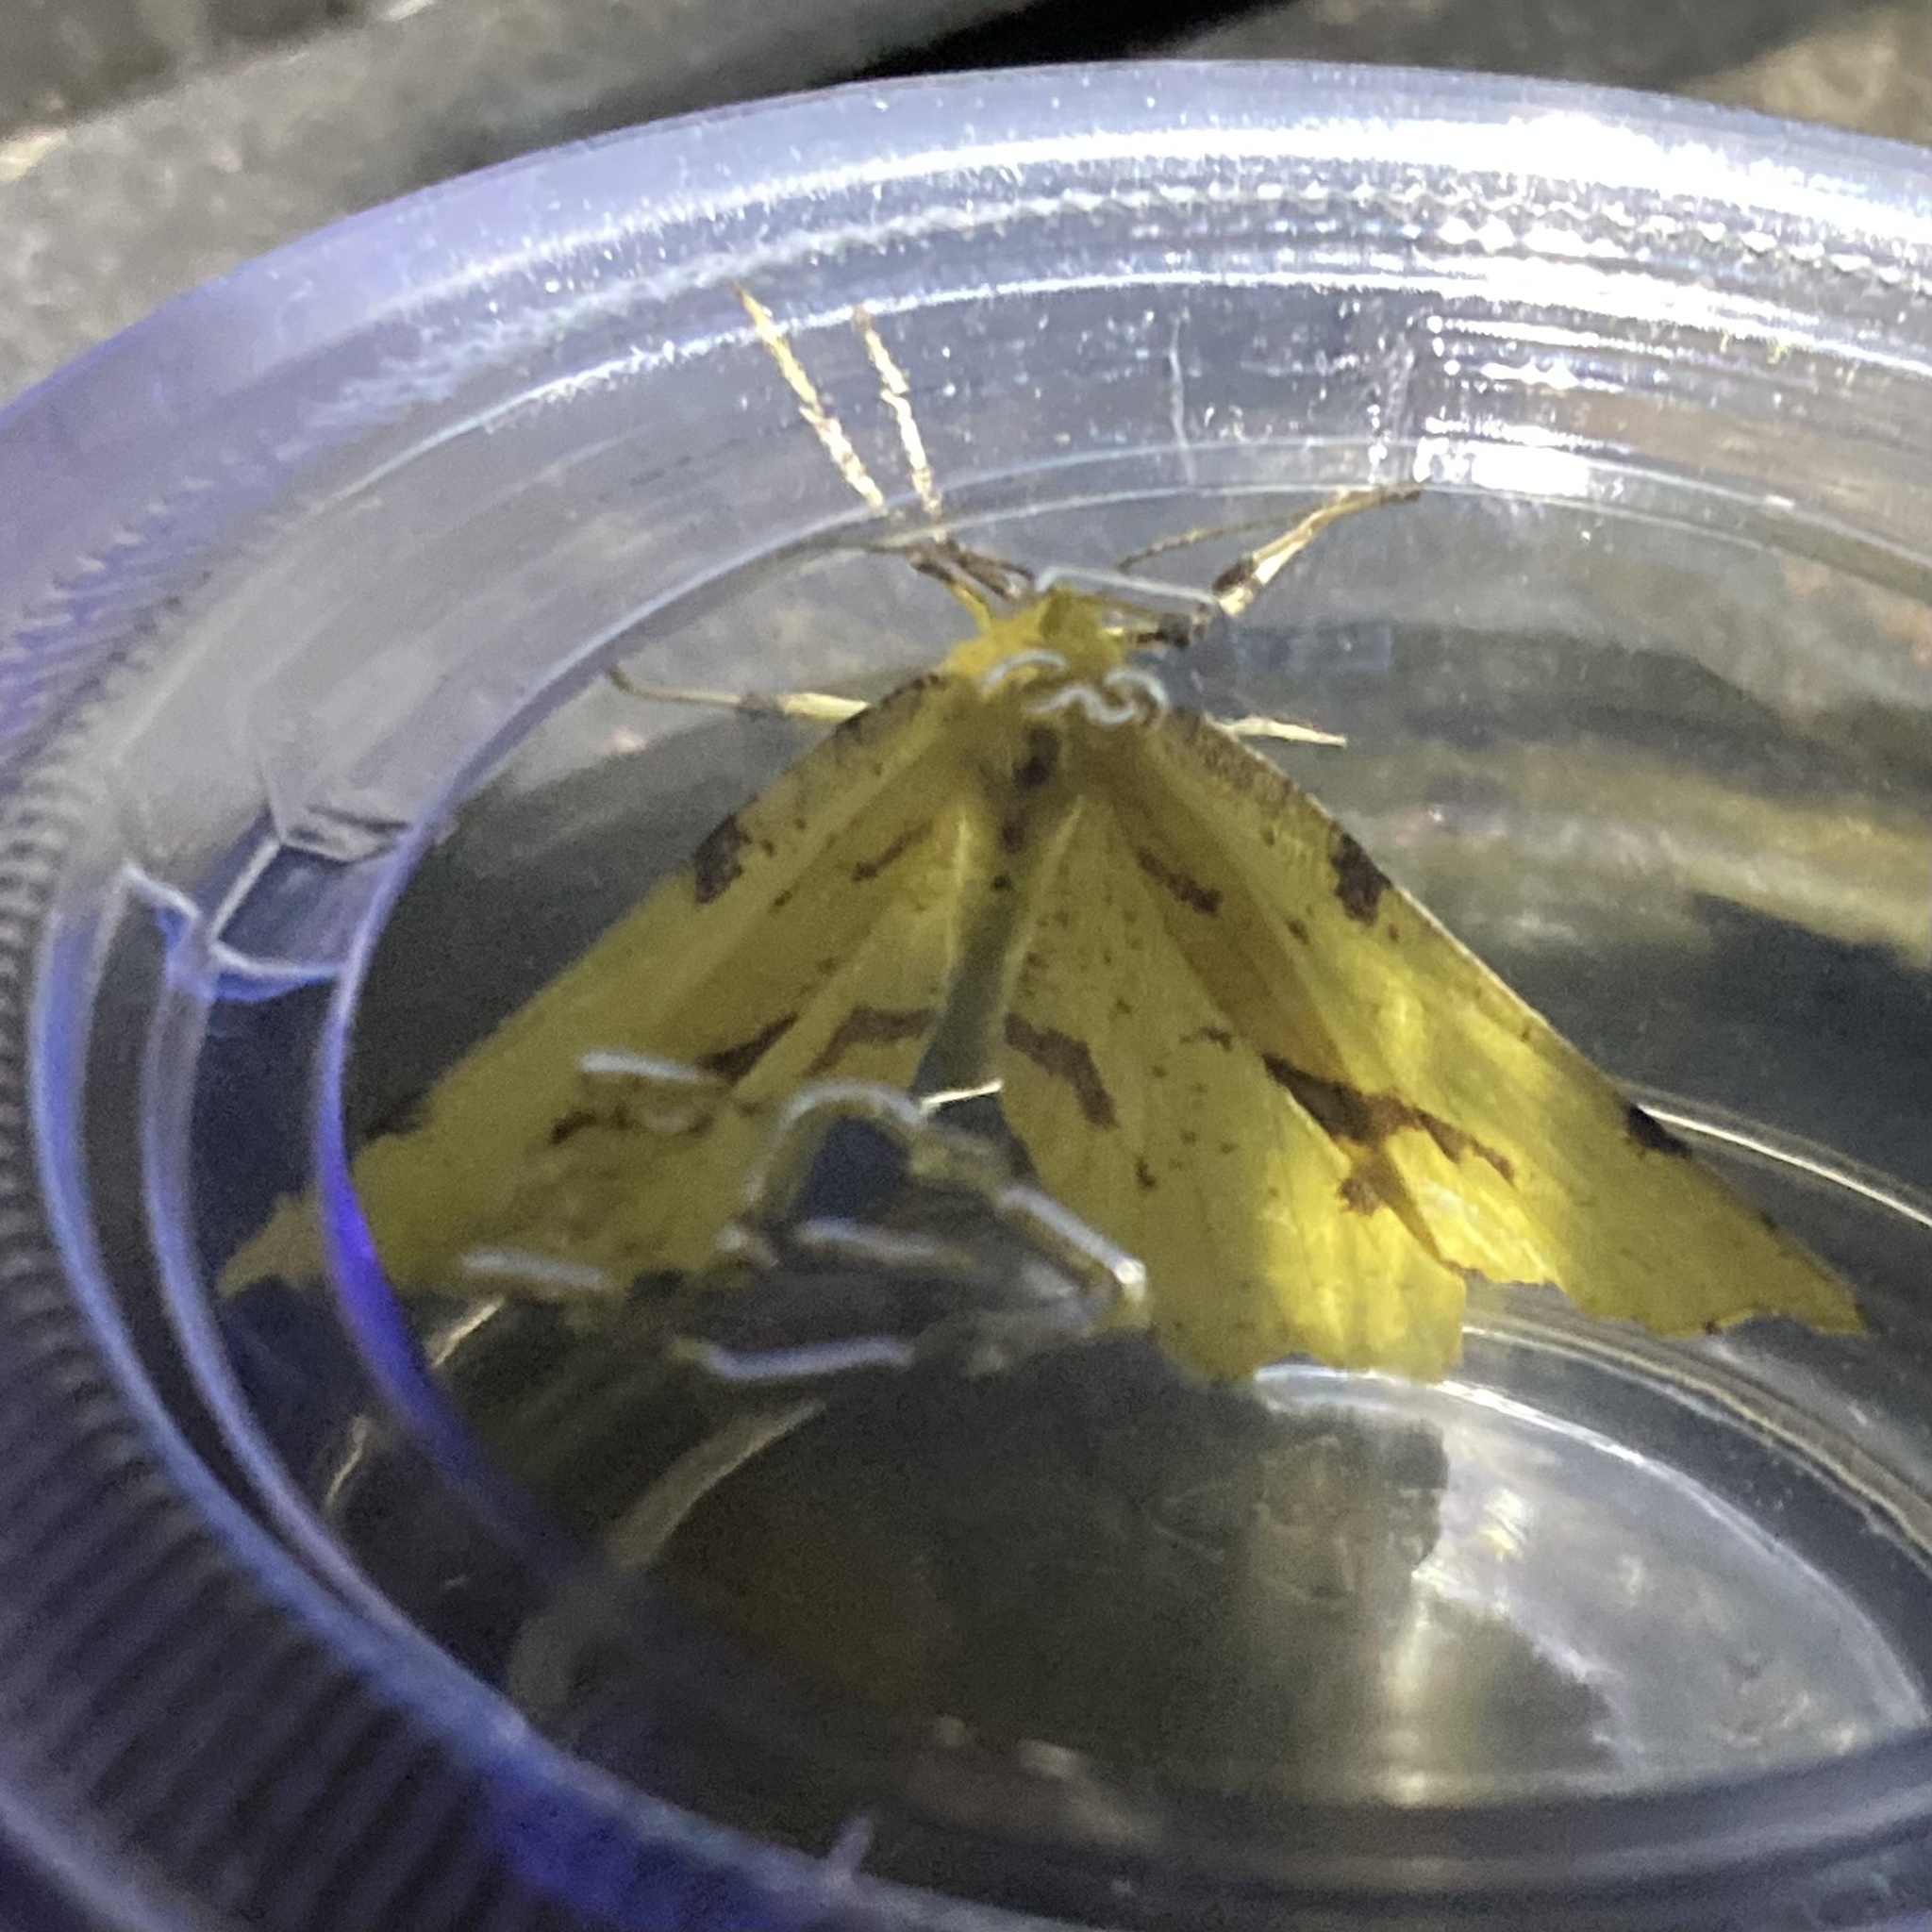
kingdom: Animalia
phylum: Arthropoda
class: Insecta
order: Lepidoptera
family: Geometridae
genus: Xanthotype
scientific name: Xanthotype
